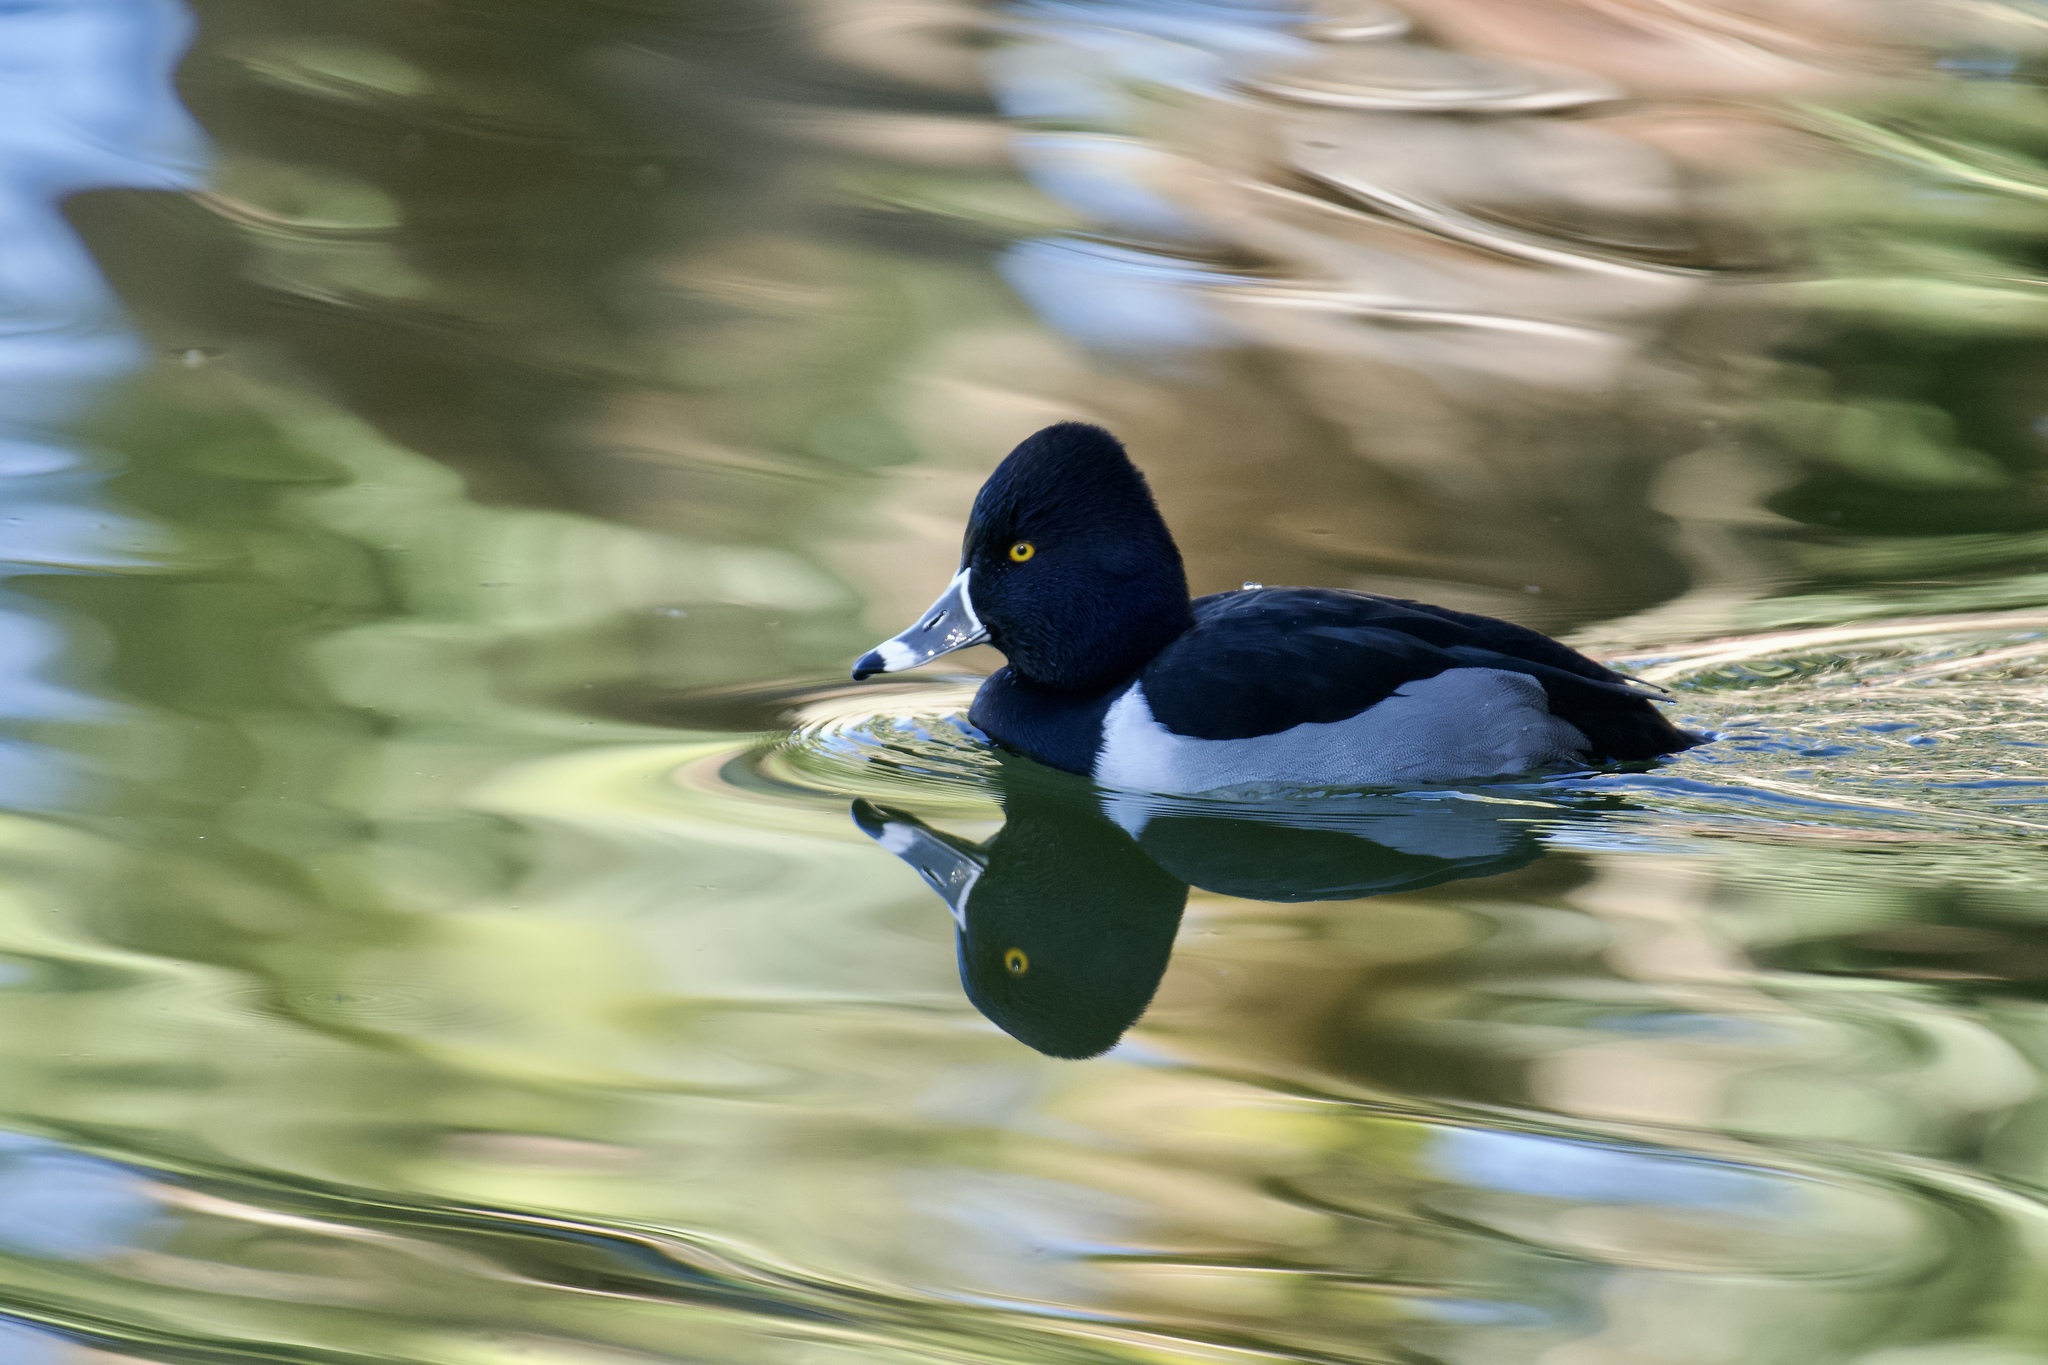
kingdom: Animalia
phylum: Chordata
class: Aves
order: Anseriformes
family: Anatidae
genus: Aythya
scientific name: Aythya collaris
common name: Ring-necked duck
